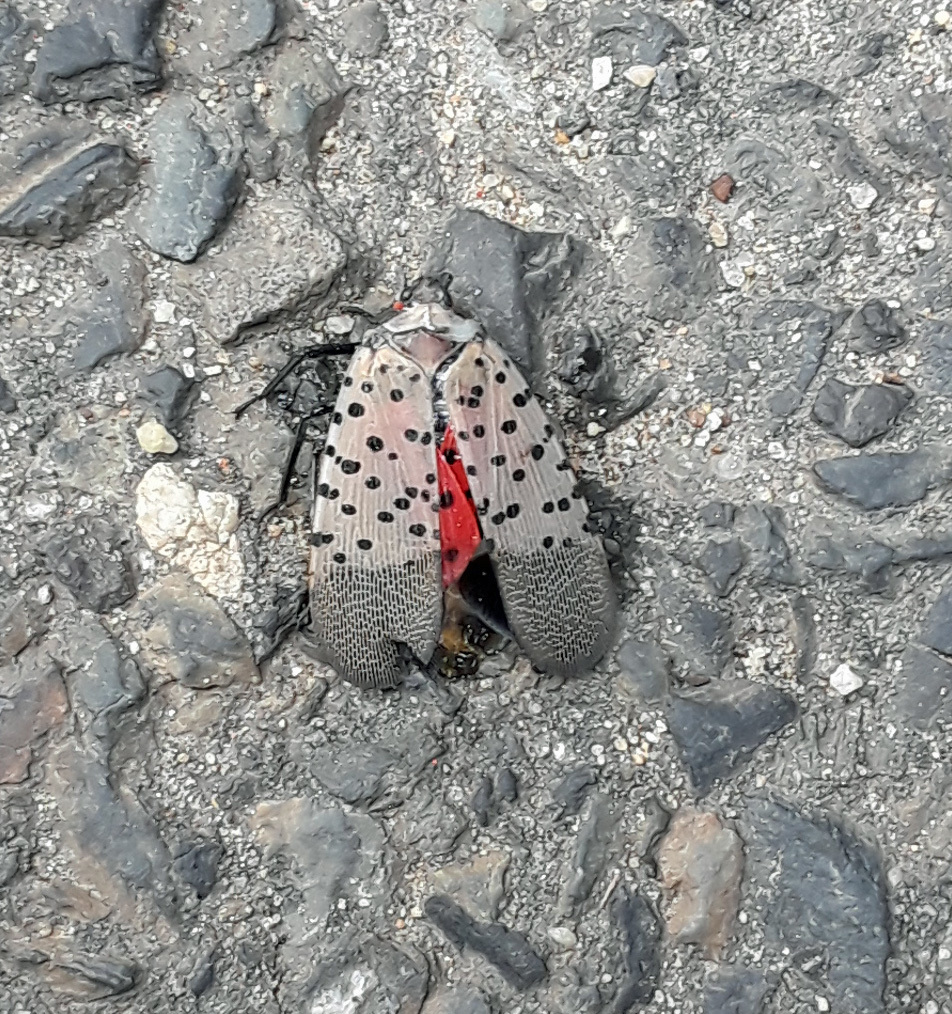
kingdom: Animalia
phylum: Arthropoda
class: Insecta
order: Hemiptera
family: Fulgoridae
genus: Lycorma
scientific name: Lycorma delicatula
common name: Spotted lanternfly
